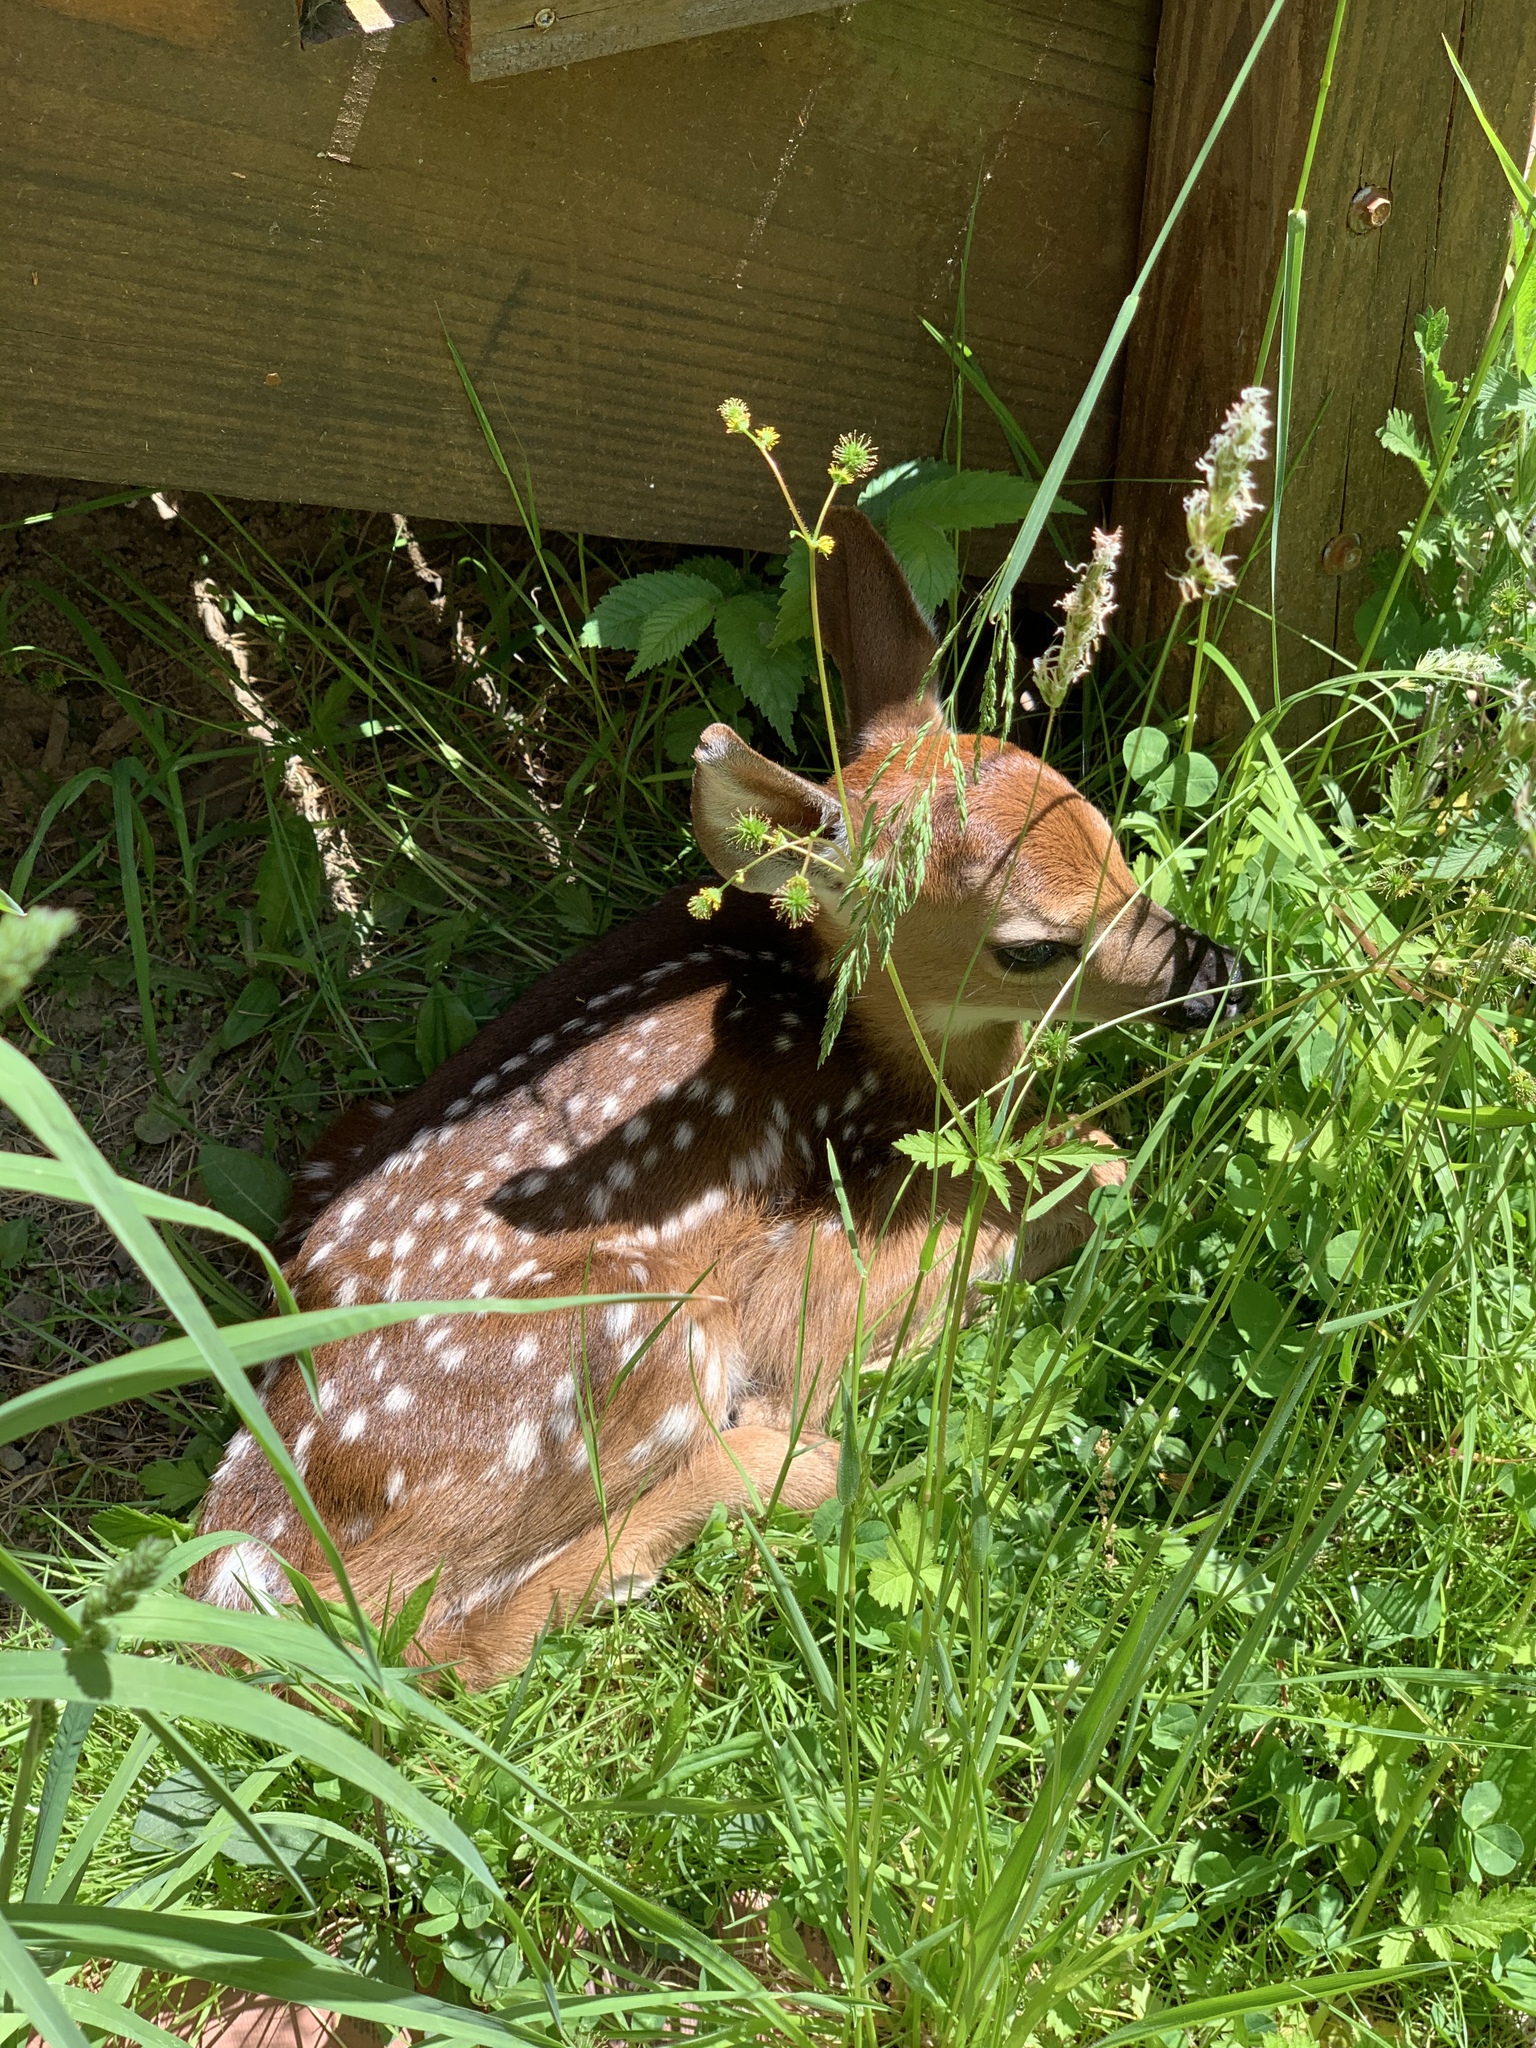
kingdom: Animalia
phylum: Chordata
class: Mammalia
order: Artiodactyla
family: Cervidae
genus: Odocoileus
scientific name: Odocoileus virginianus
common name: White-tailed deer
